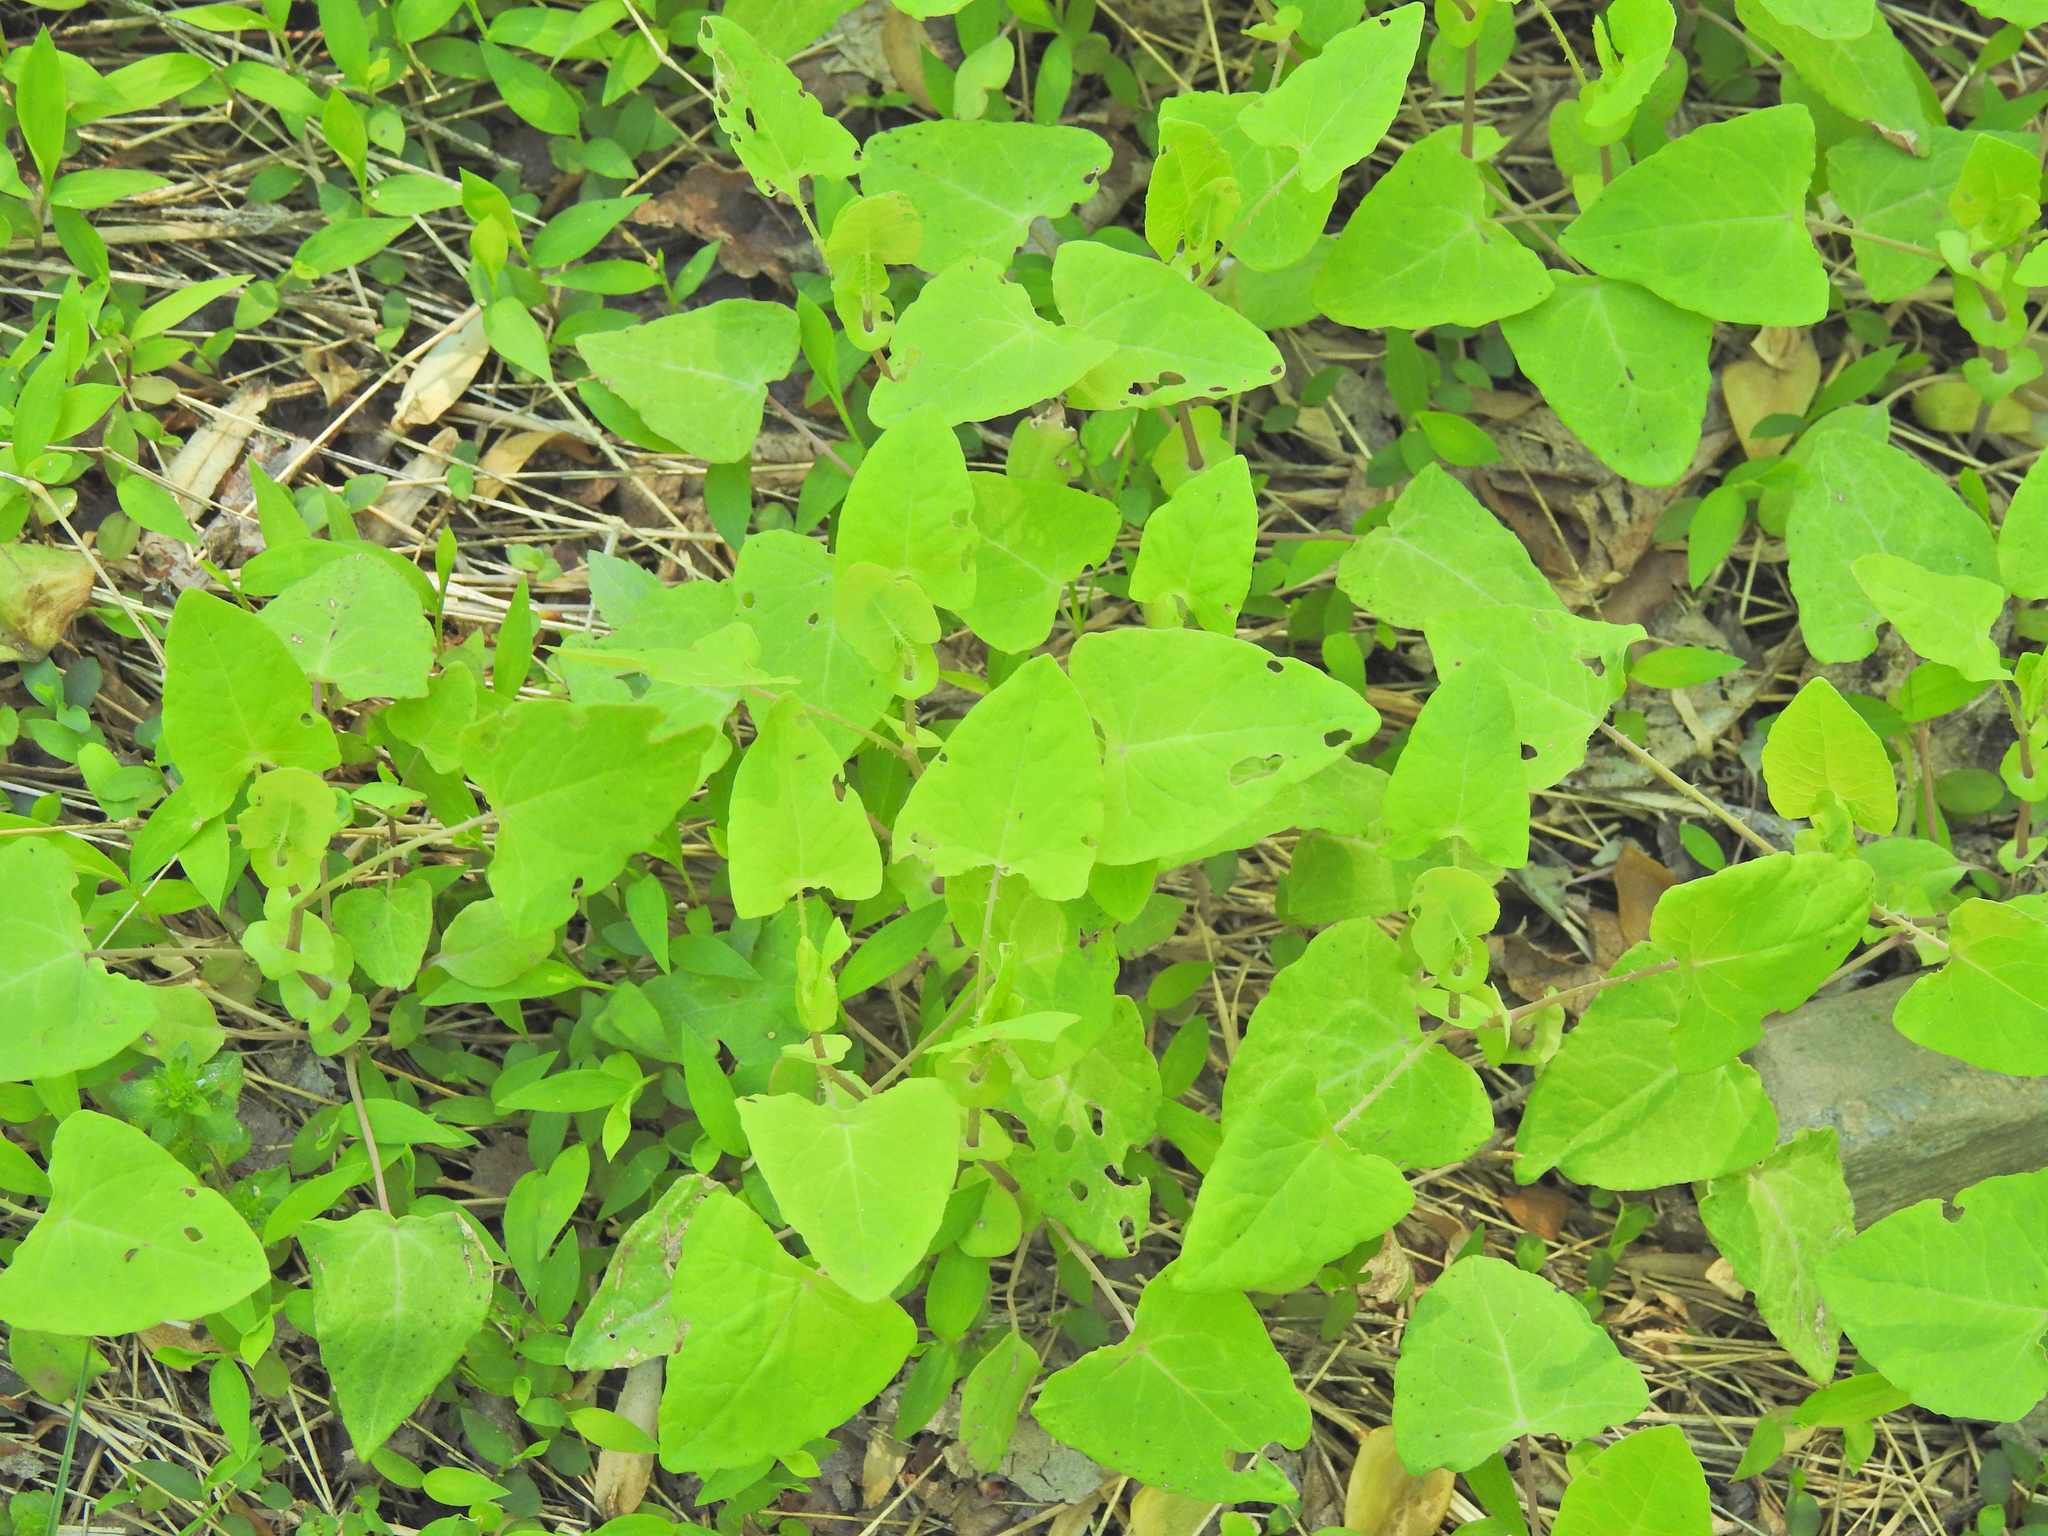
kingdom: Plantae
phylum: Tracheophyta
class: Magnoliopsida
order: Caryophyllales
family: Polygonaceae
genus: Persicaria
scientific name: Persicaria perfoliata
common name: Asiatic tearthumb
